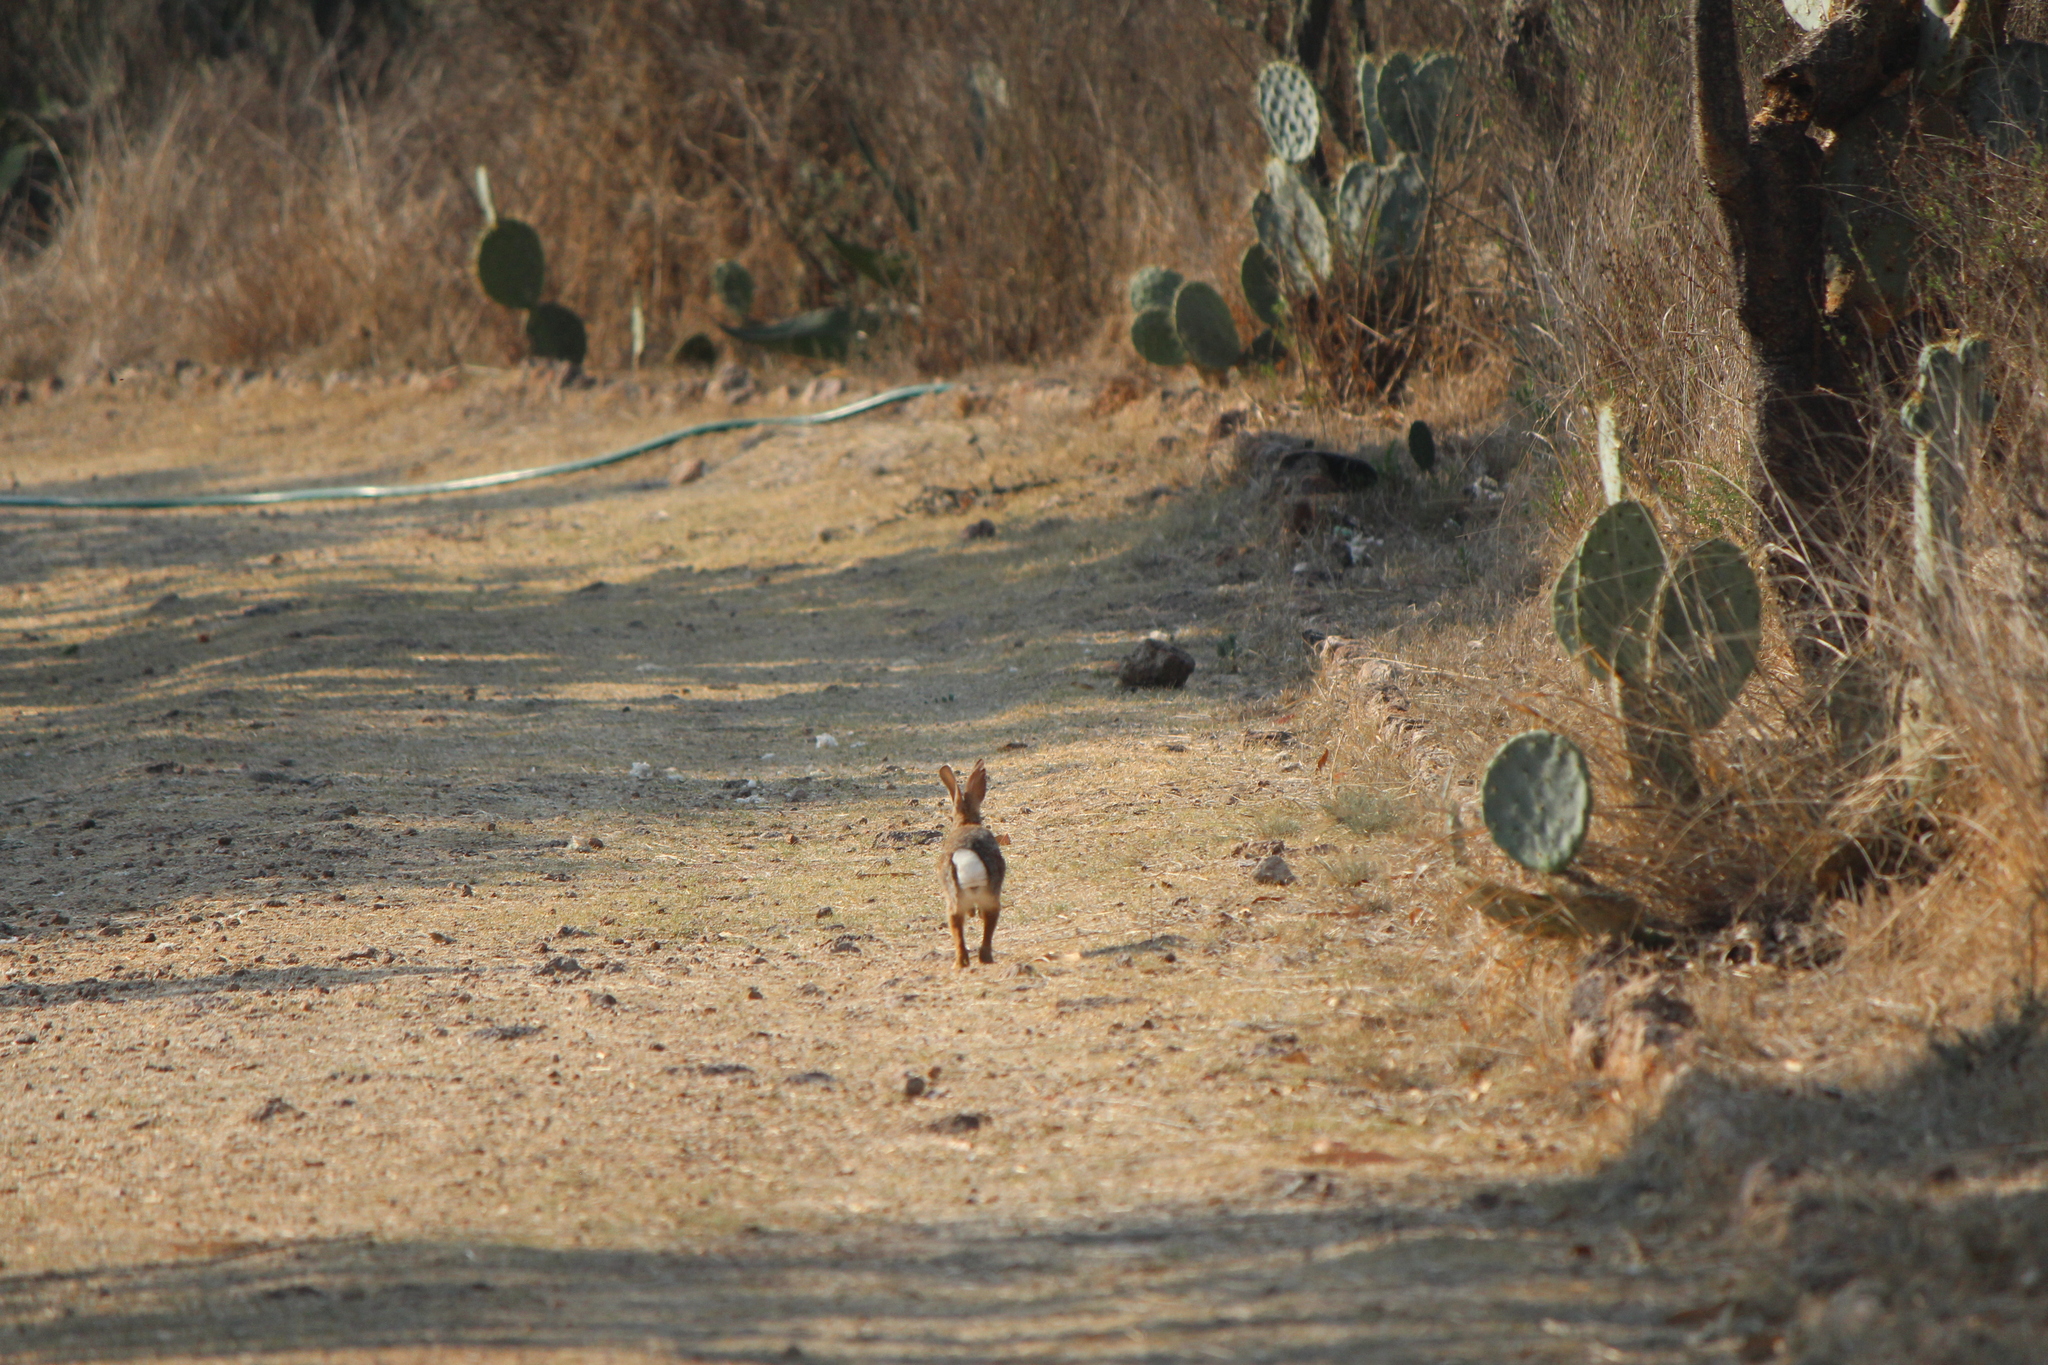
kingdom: Animalia
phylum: Chordata
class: Mammalia
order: Lagomorpha
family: Leporidae
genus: Sylvilagus
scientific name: Sylvilagus audubonii
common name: Desert cottontail
